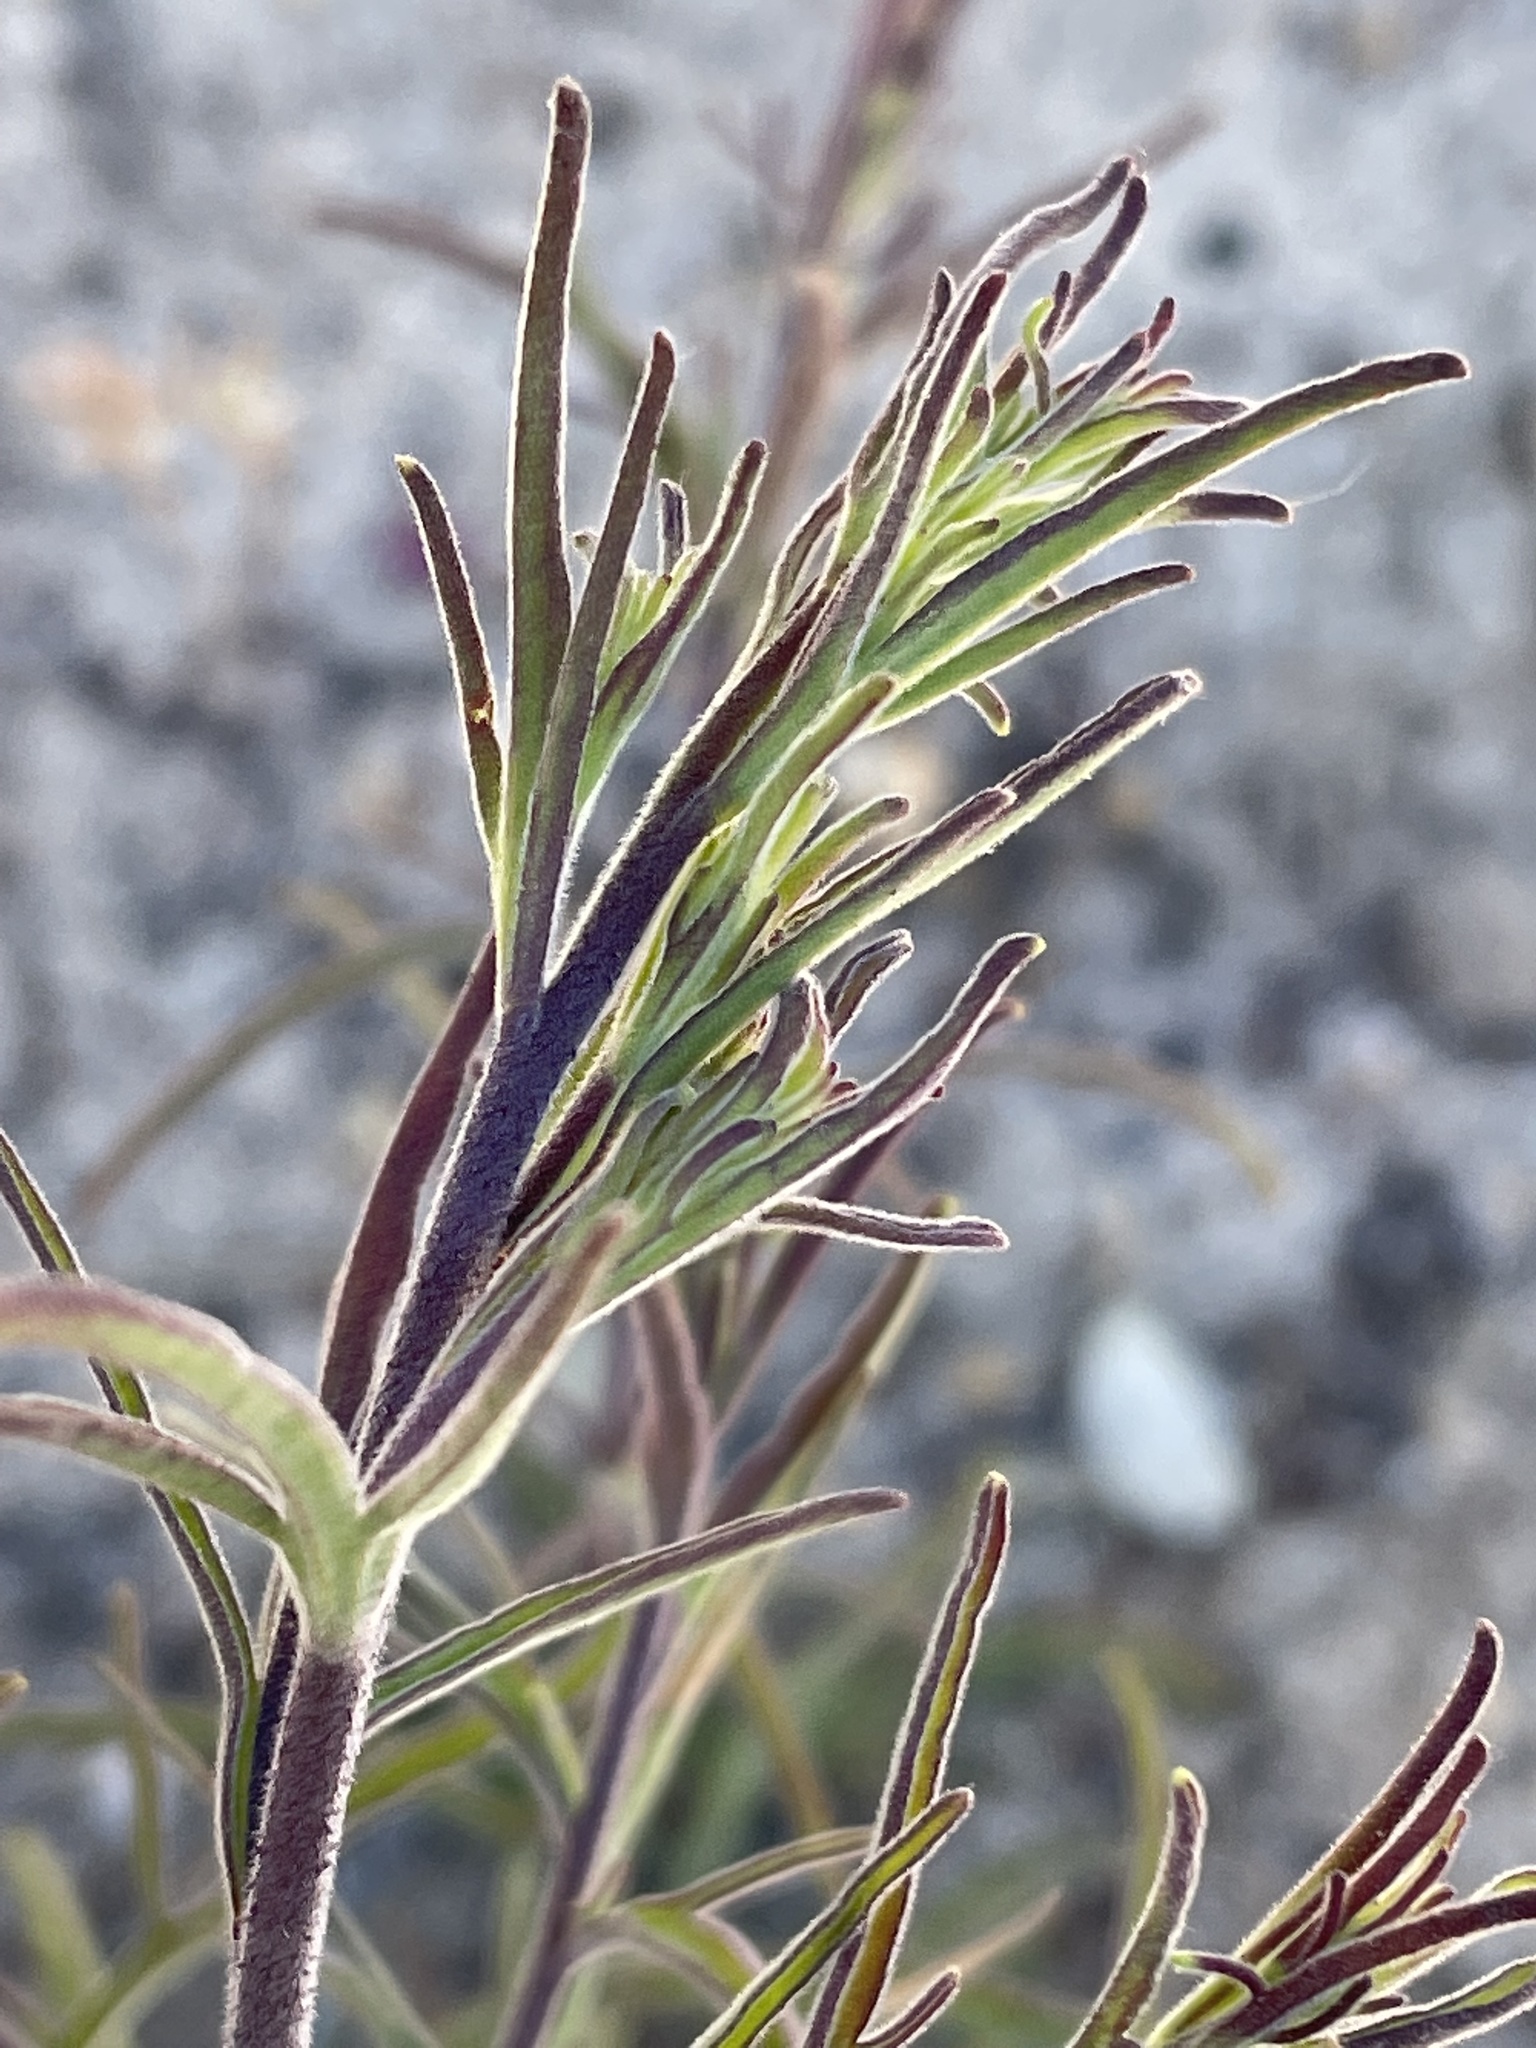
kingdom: Plantae
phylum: Tracheophyta
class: Magnoliopsida
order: Lamiales
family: Orobanchaceae
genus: Cordylanthus
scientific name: Cordylanthus rigidus
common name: Stiff-branch bird's-beak
